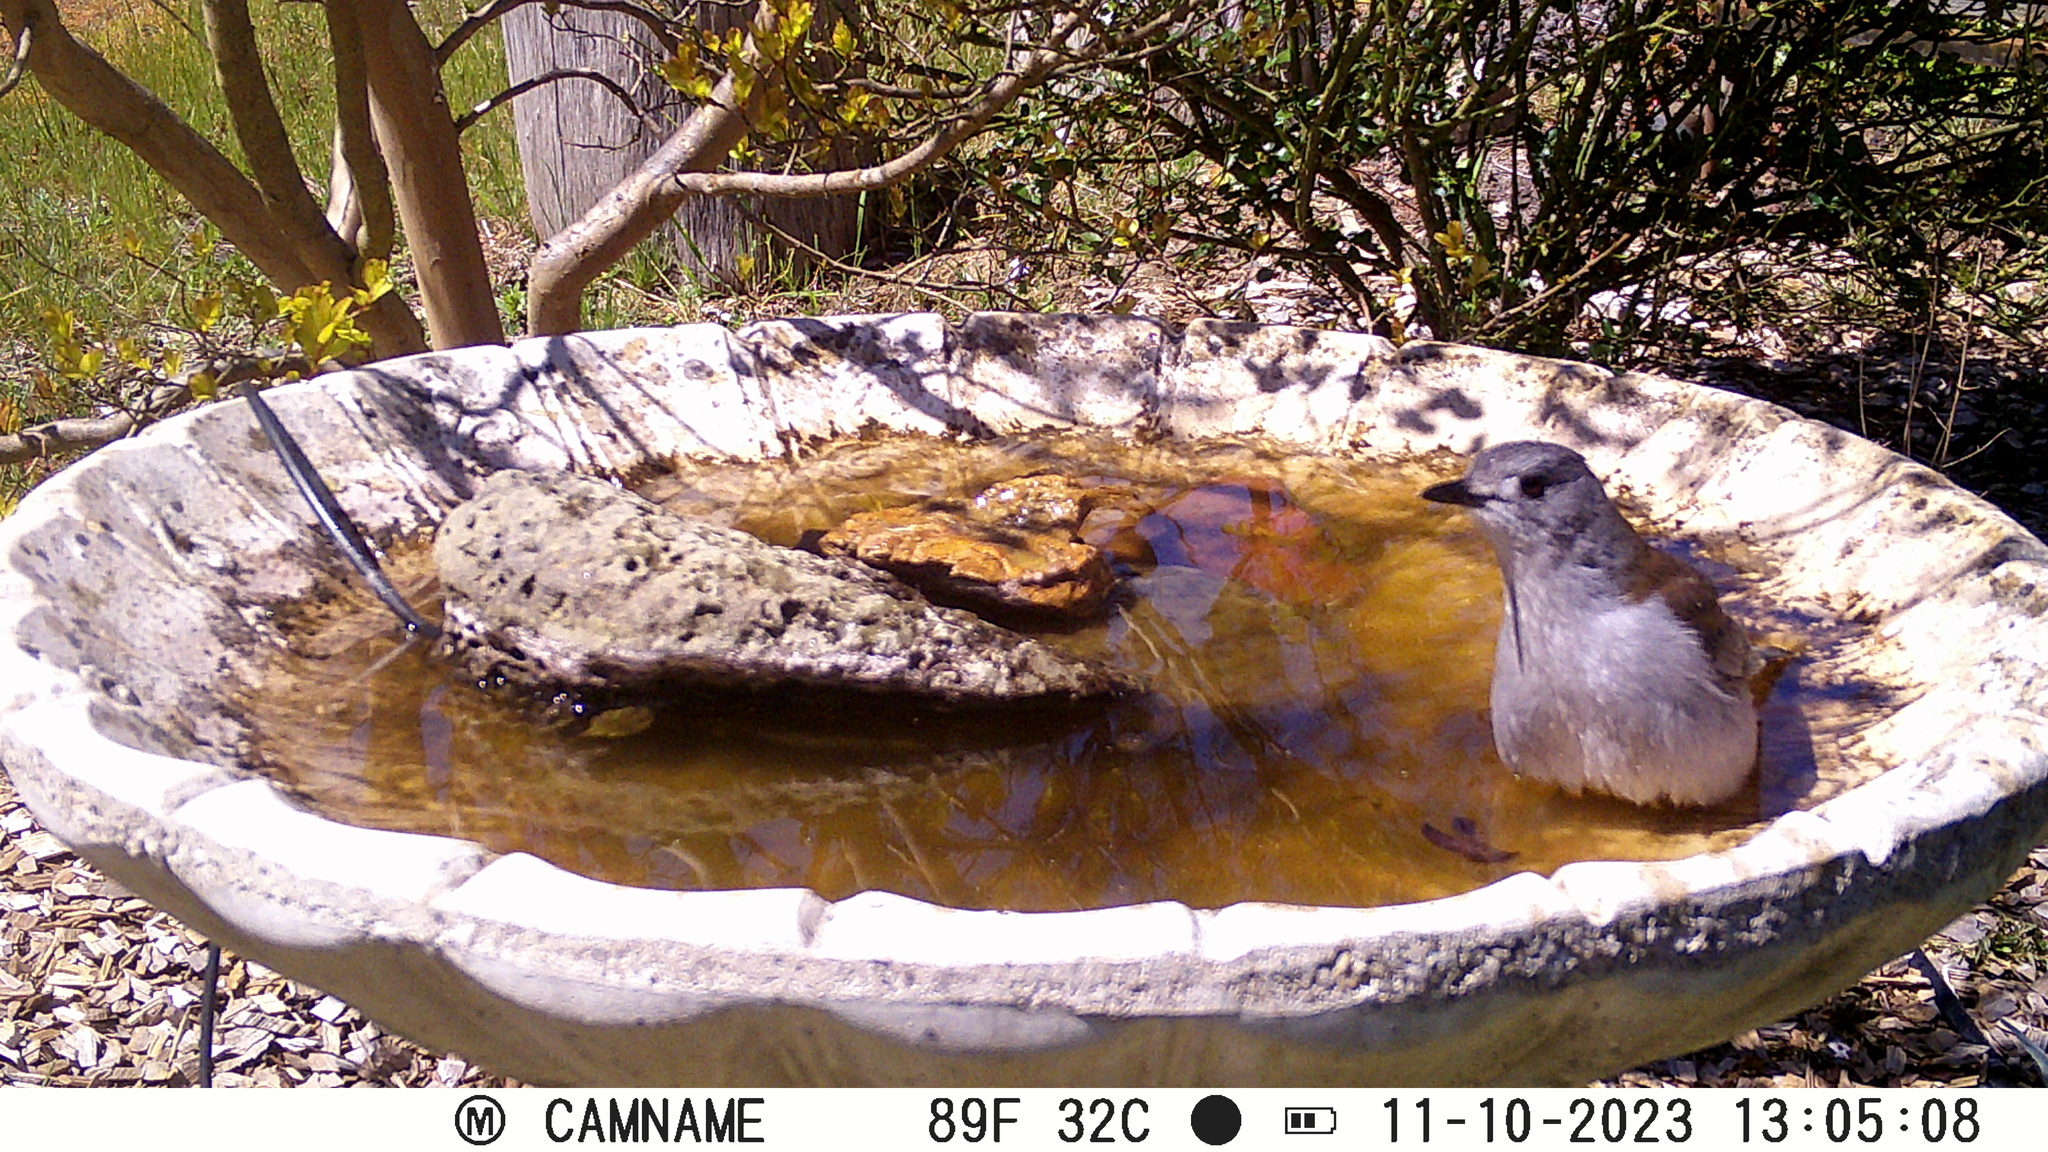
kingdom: Animalia
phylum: Chordata
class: Aves
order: Passeriformes
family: Pachycephalidae
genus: Colluricincla
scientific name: Colluricincla harmonica
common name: Grey shrikethrush
